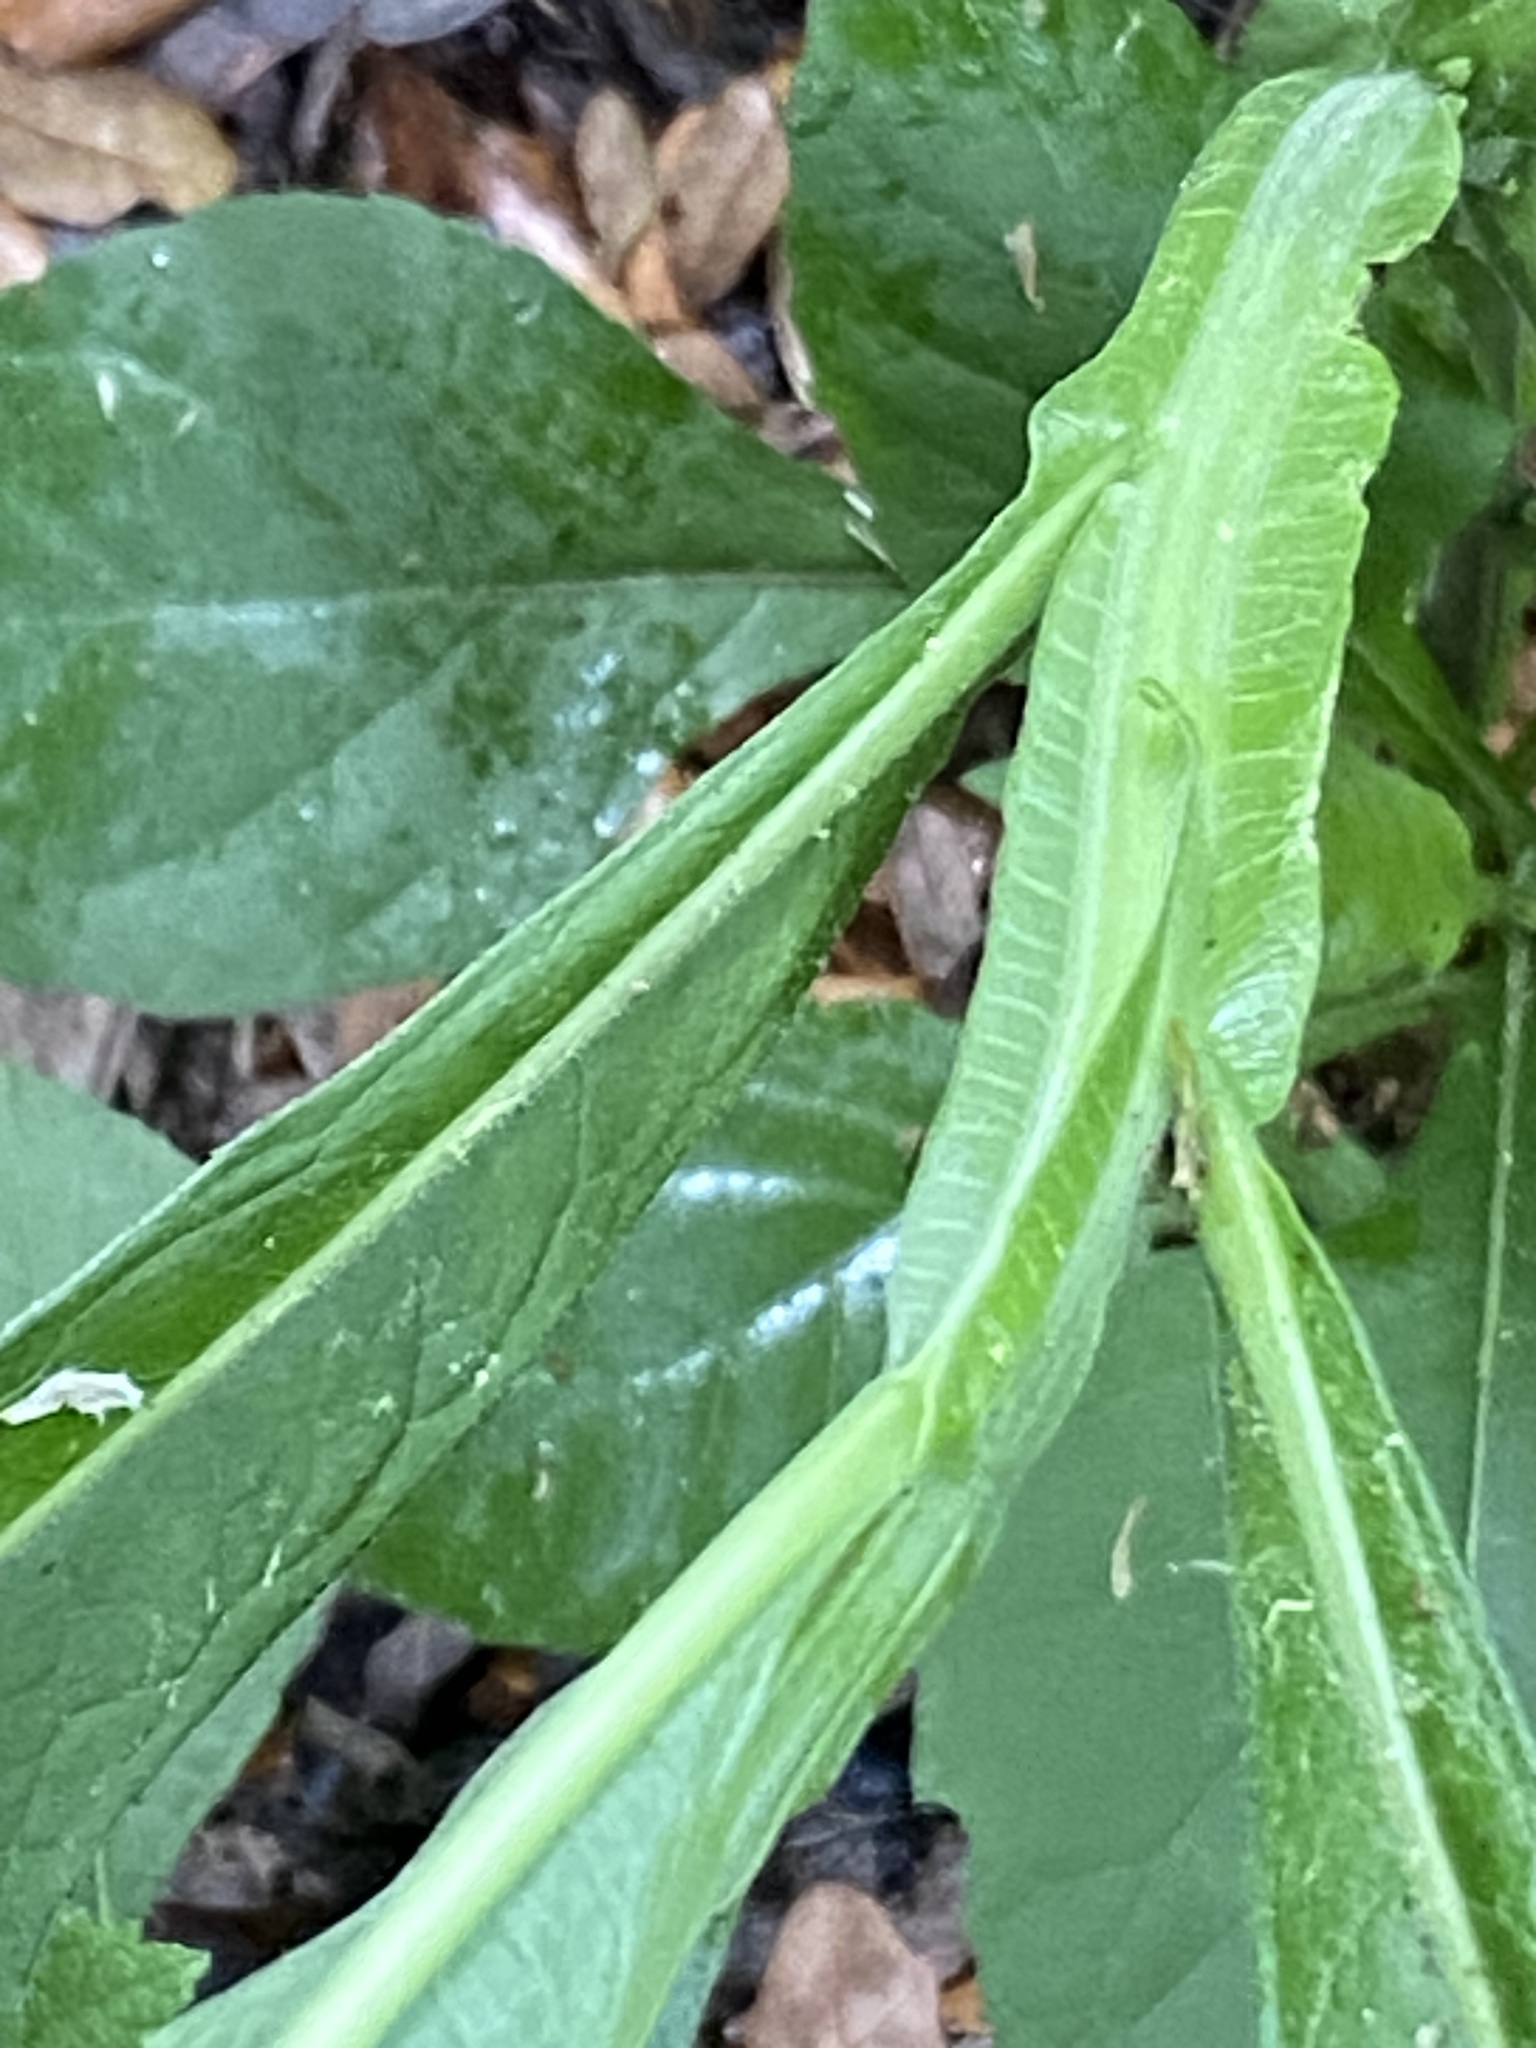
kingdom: Plantae
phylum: Tracheophyta
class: Magnoliopsida
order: Asterales
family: Asteraceae
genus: Verbesina
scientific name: Verbesina virginica
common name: Frostweed
